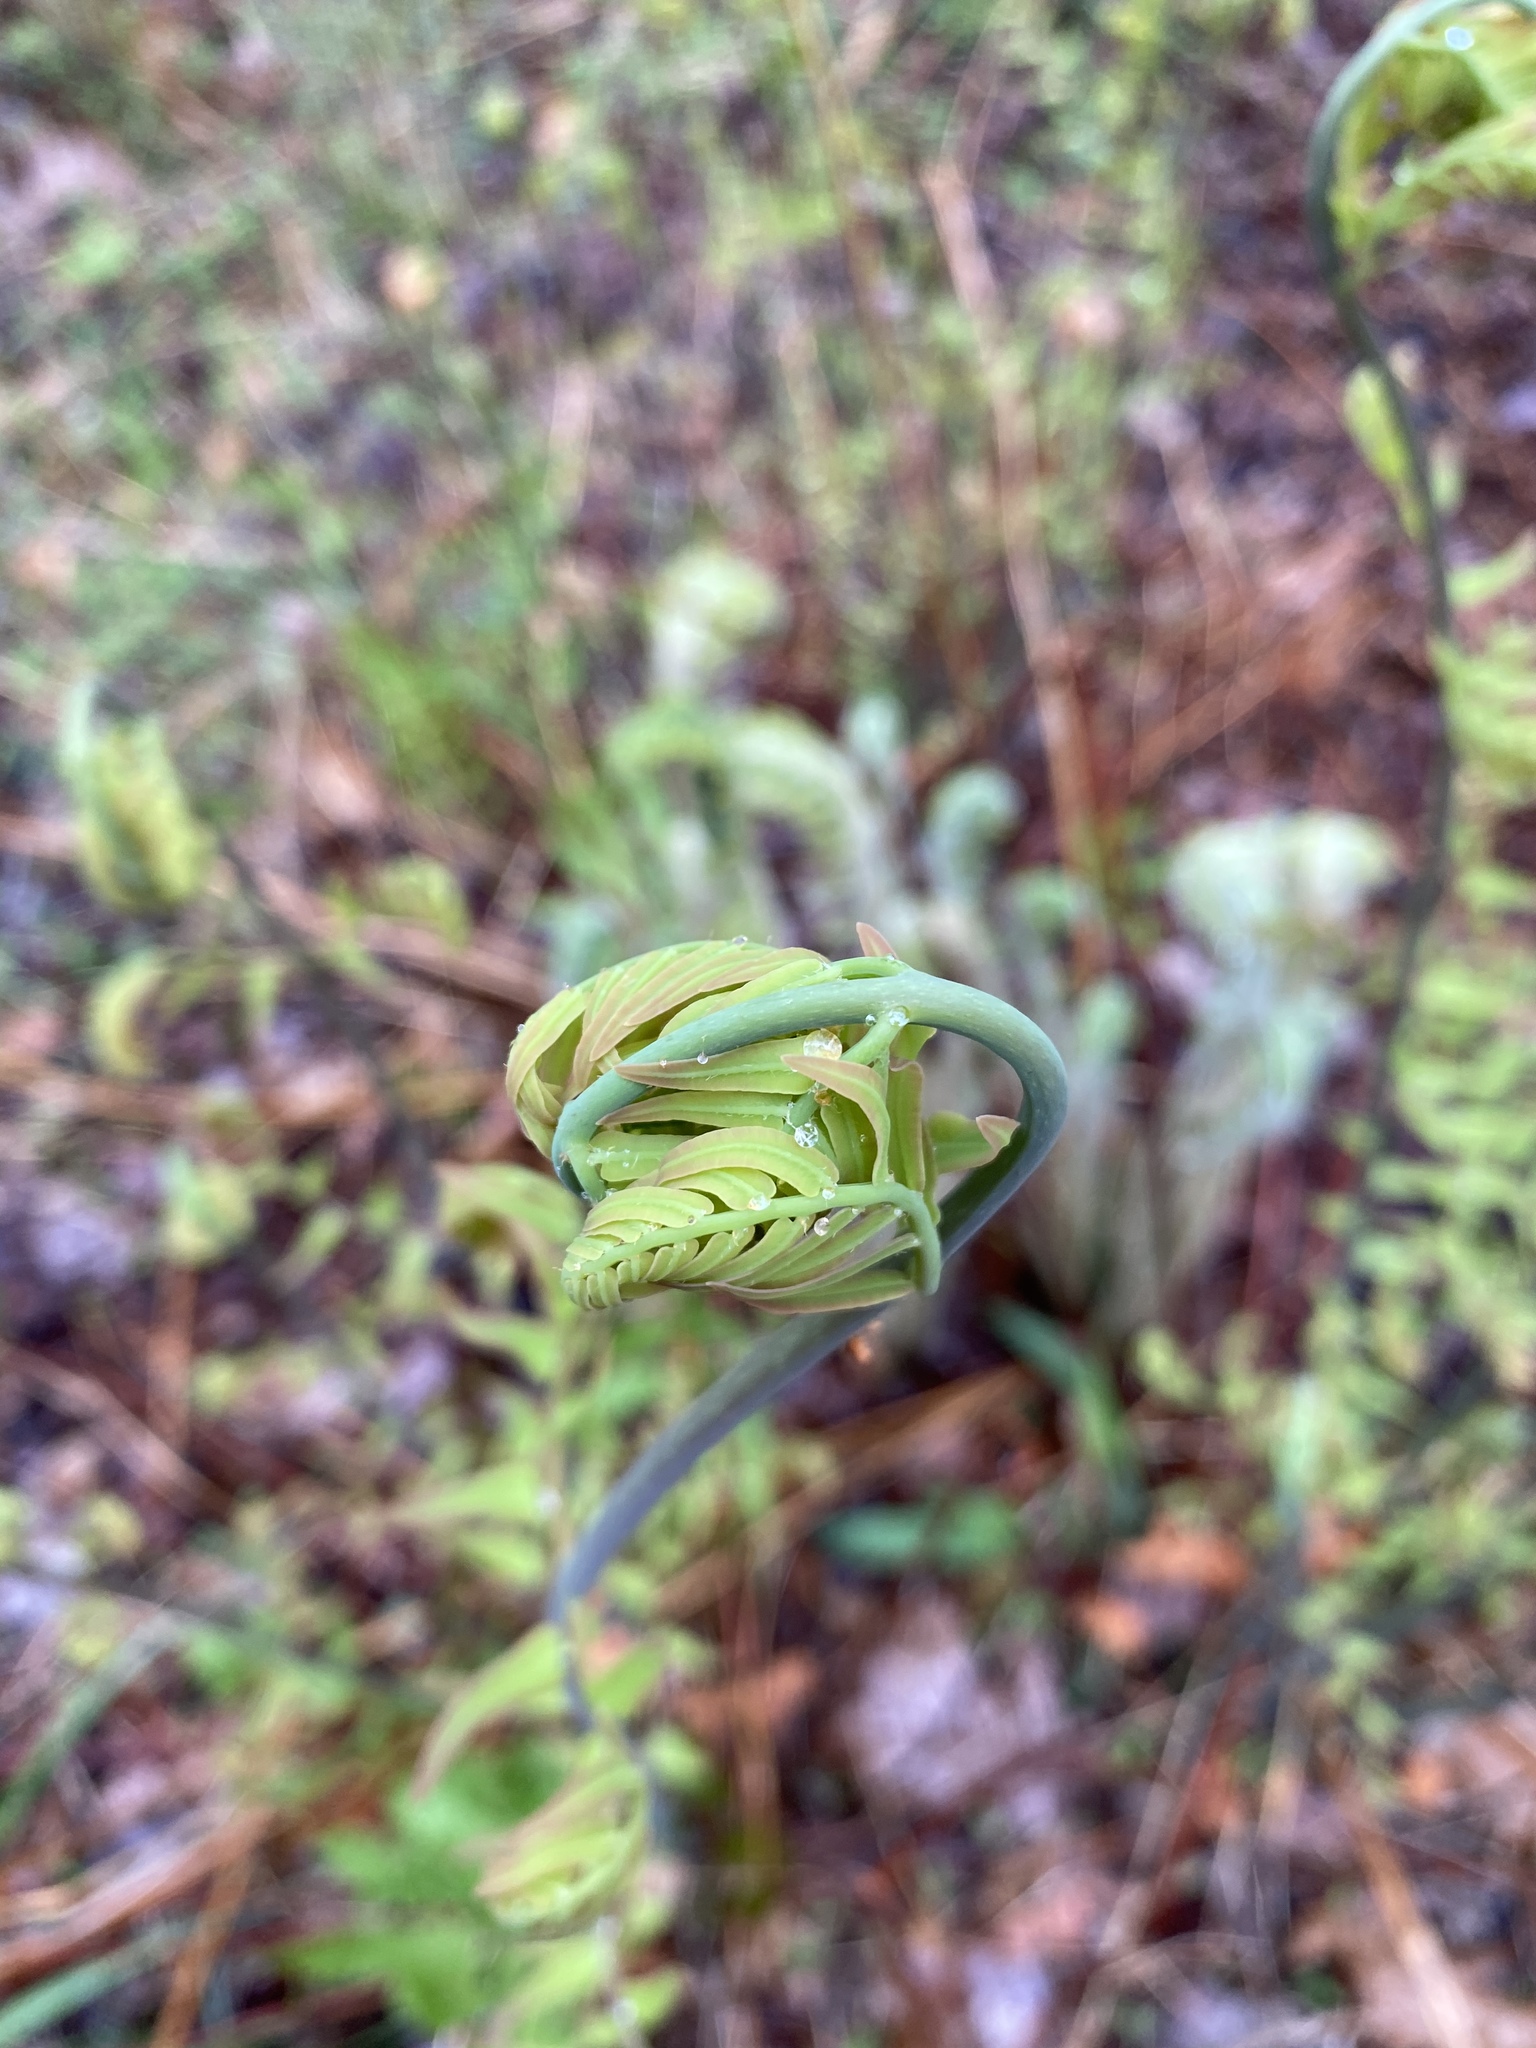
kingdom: Plantae
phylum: Tracheophyta
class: Polypodiopsida
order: Osmundales
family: Osmundaceae
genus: Osmunda
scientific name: Osmunda spectabilis
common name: American royal fern
